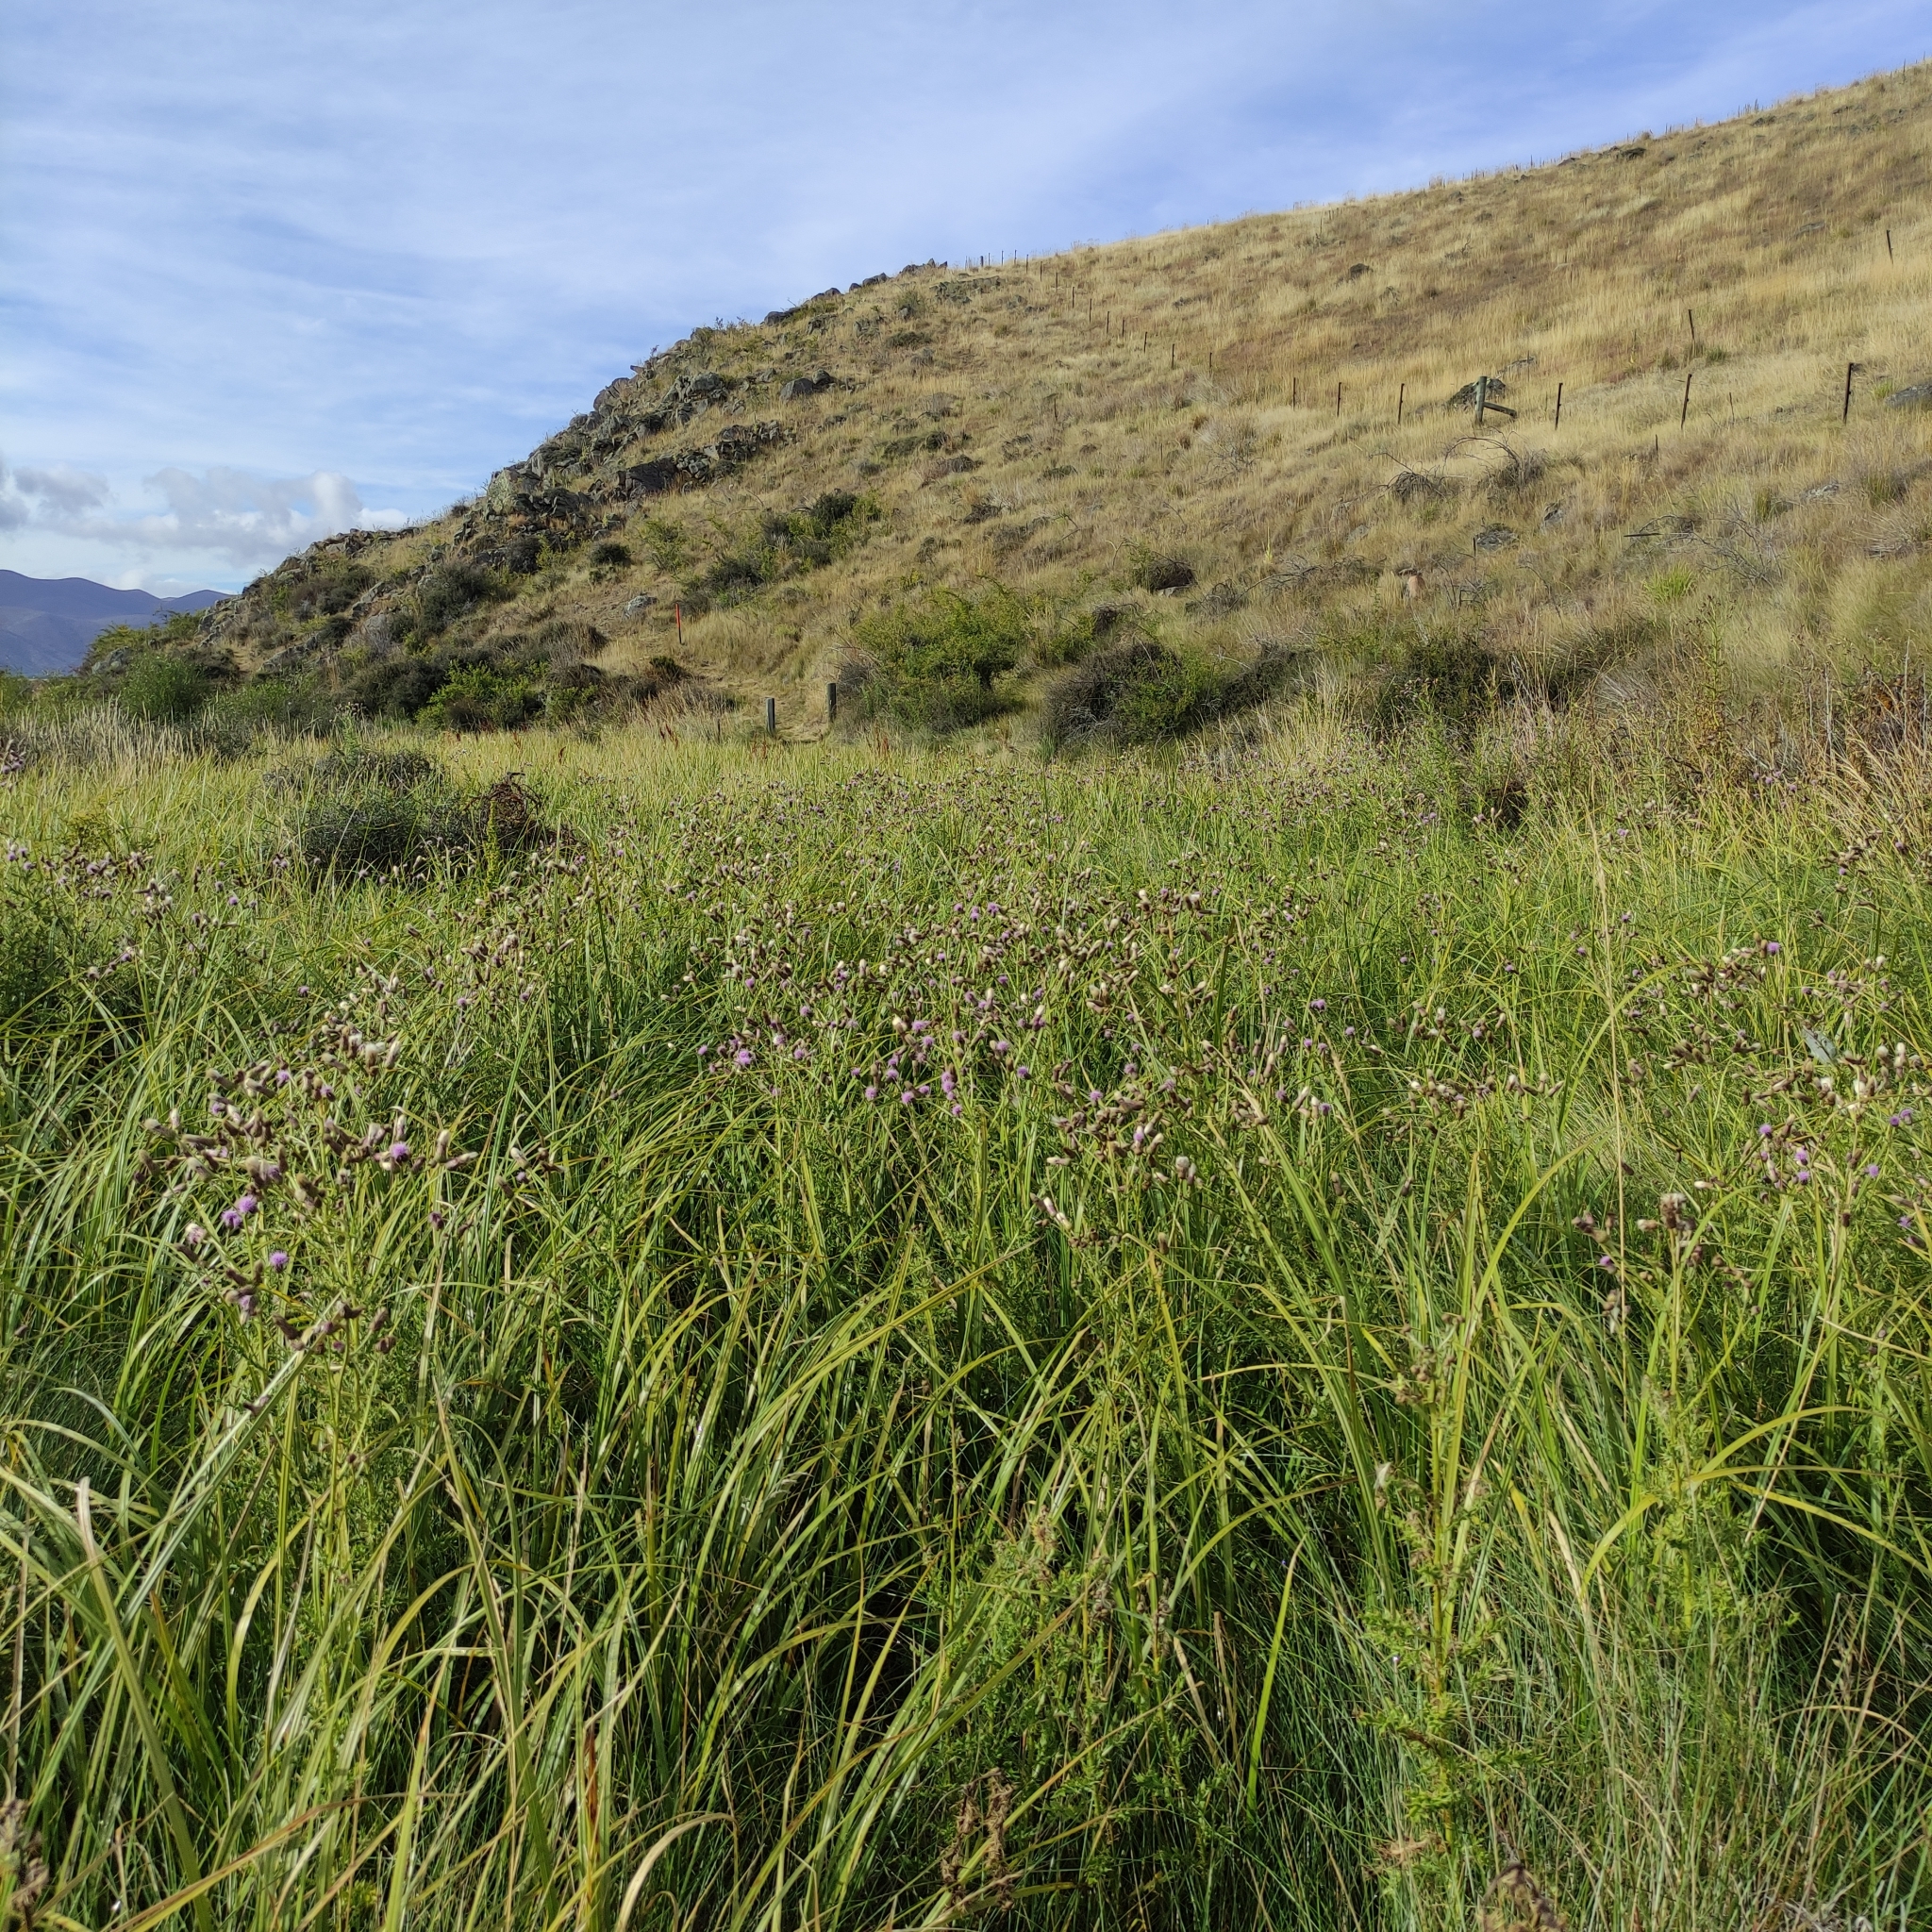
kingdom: Plantae
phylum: Tracheophyta
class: Magnoliopsida
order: Asterales
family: Asteraceae
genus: Cirsium
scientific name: Cirsium arvense
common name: Creeping thistle
